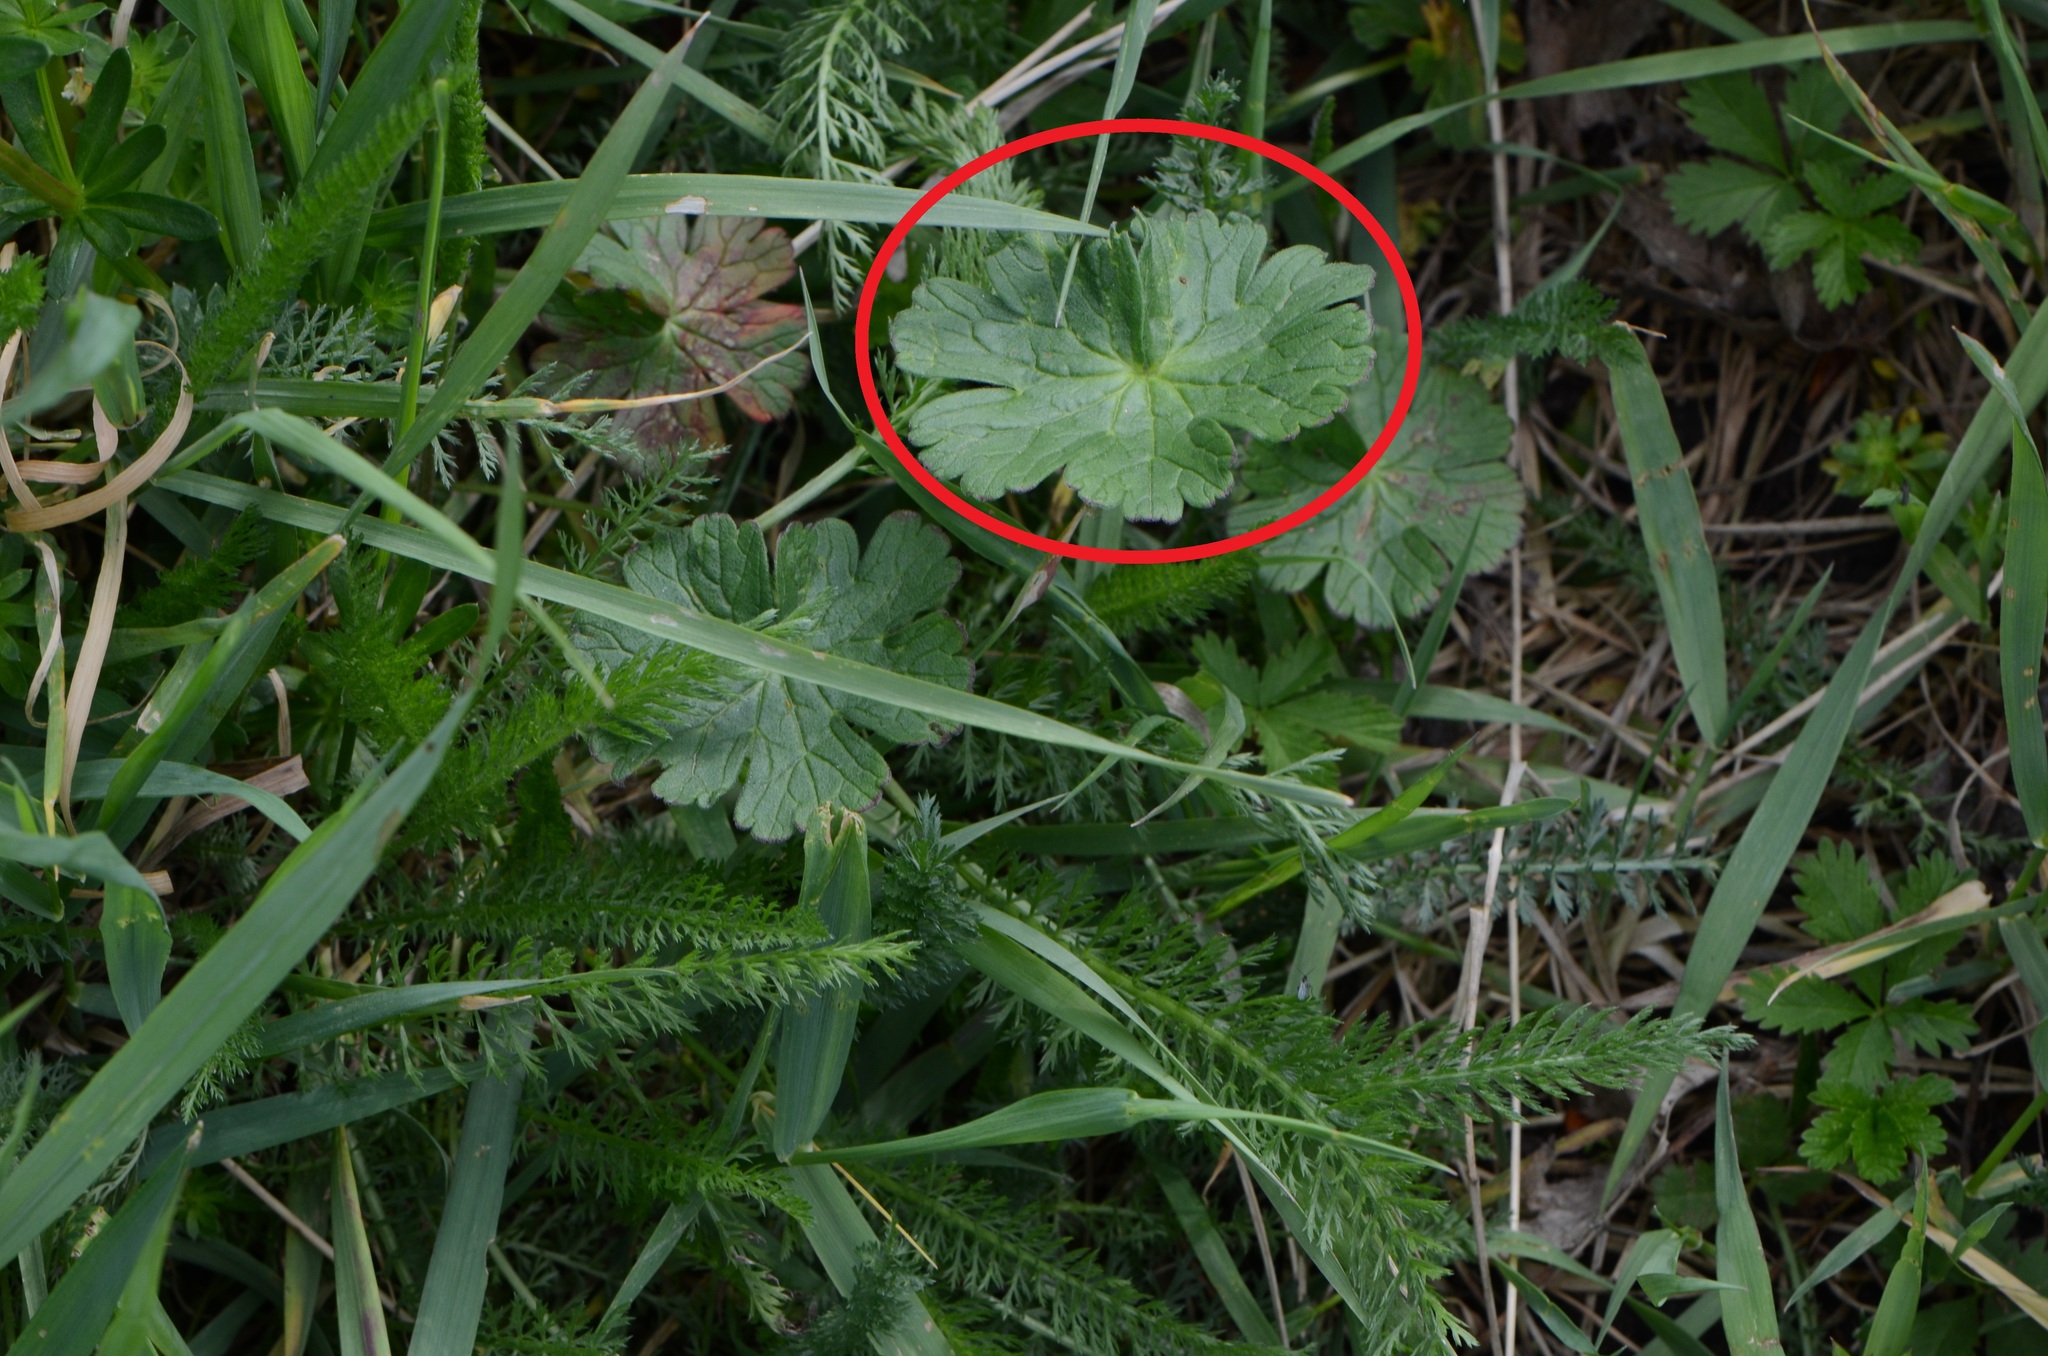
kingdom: Plantae
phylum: Tracheophyta
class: Magnoliopsida
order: Geraniales
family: Geraniaceae
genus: Geranium
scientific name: Geranium pyrenaicum
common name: Hedgerow crane's-bill
